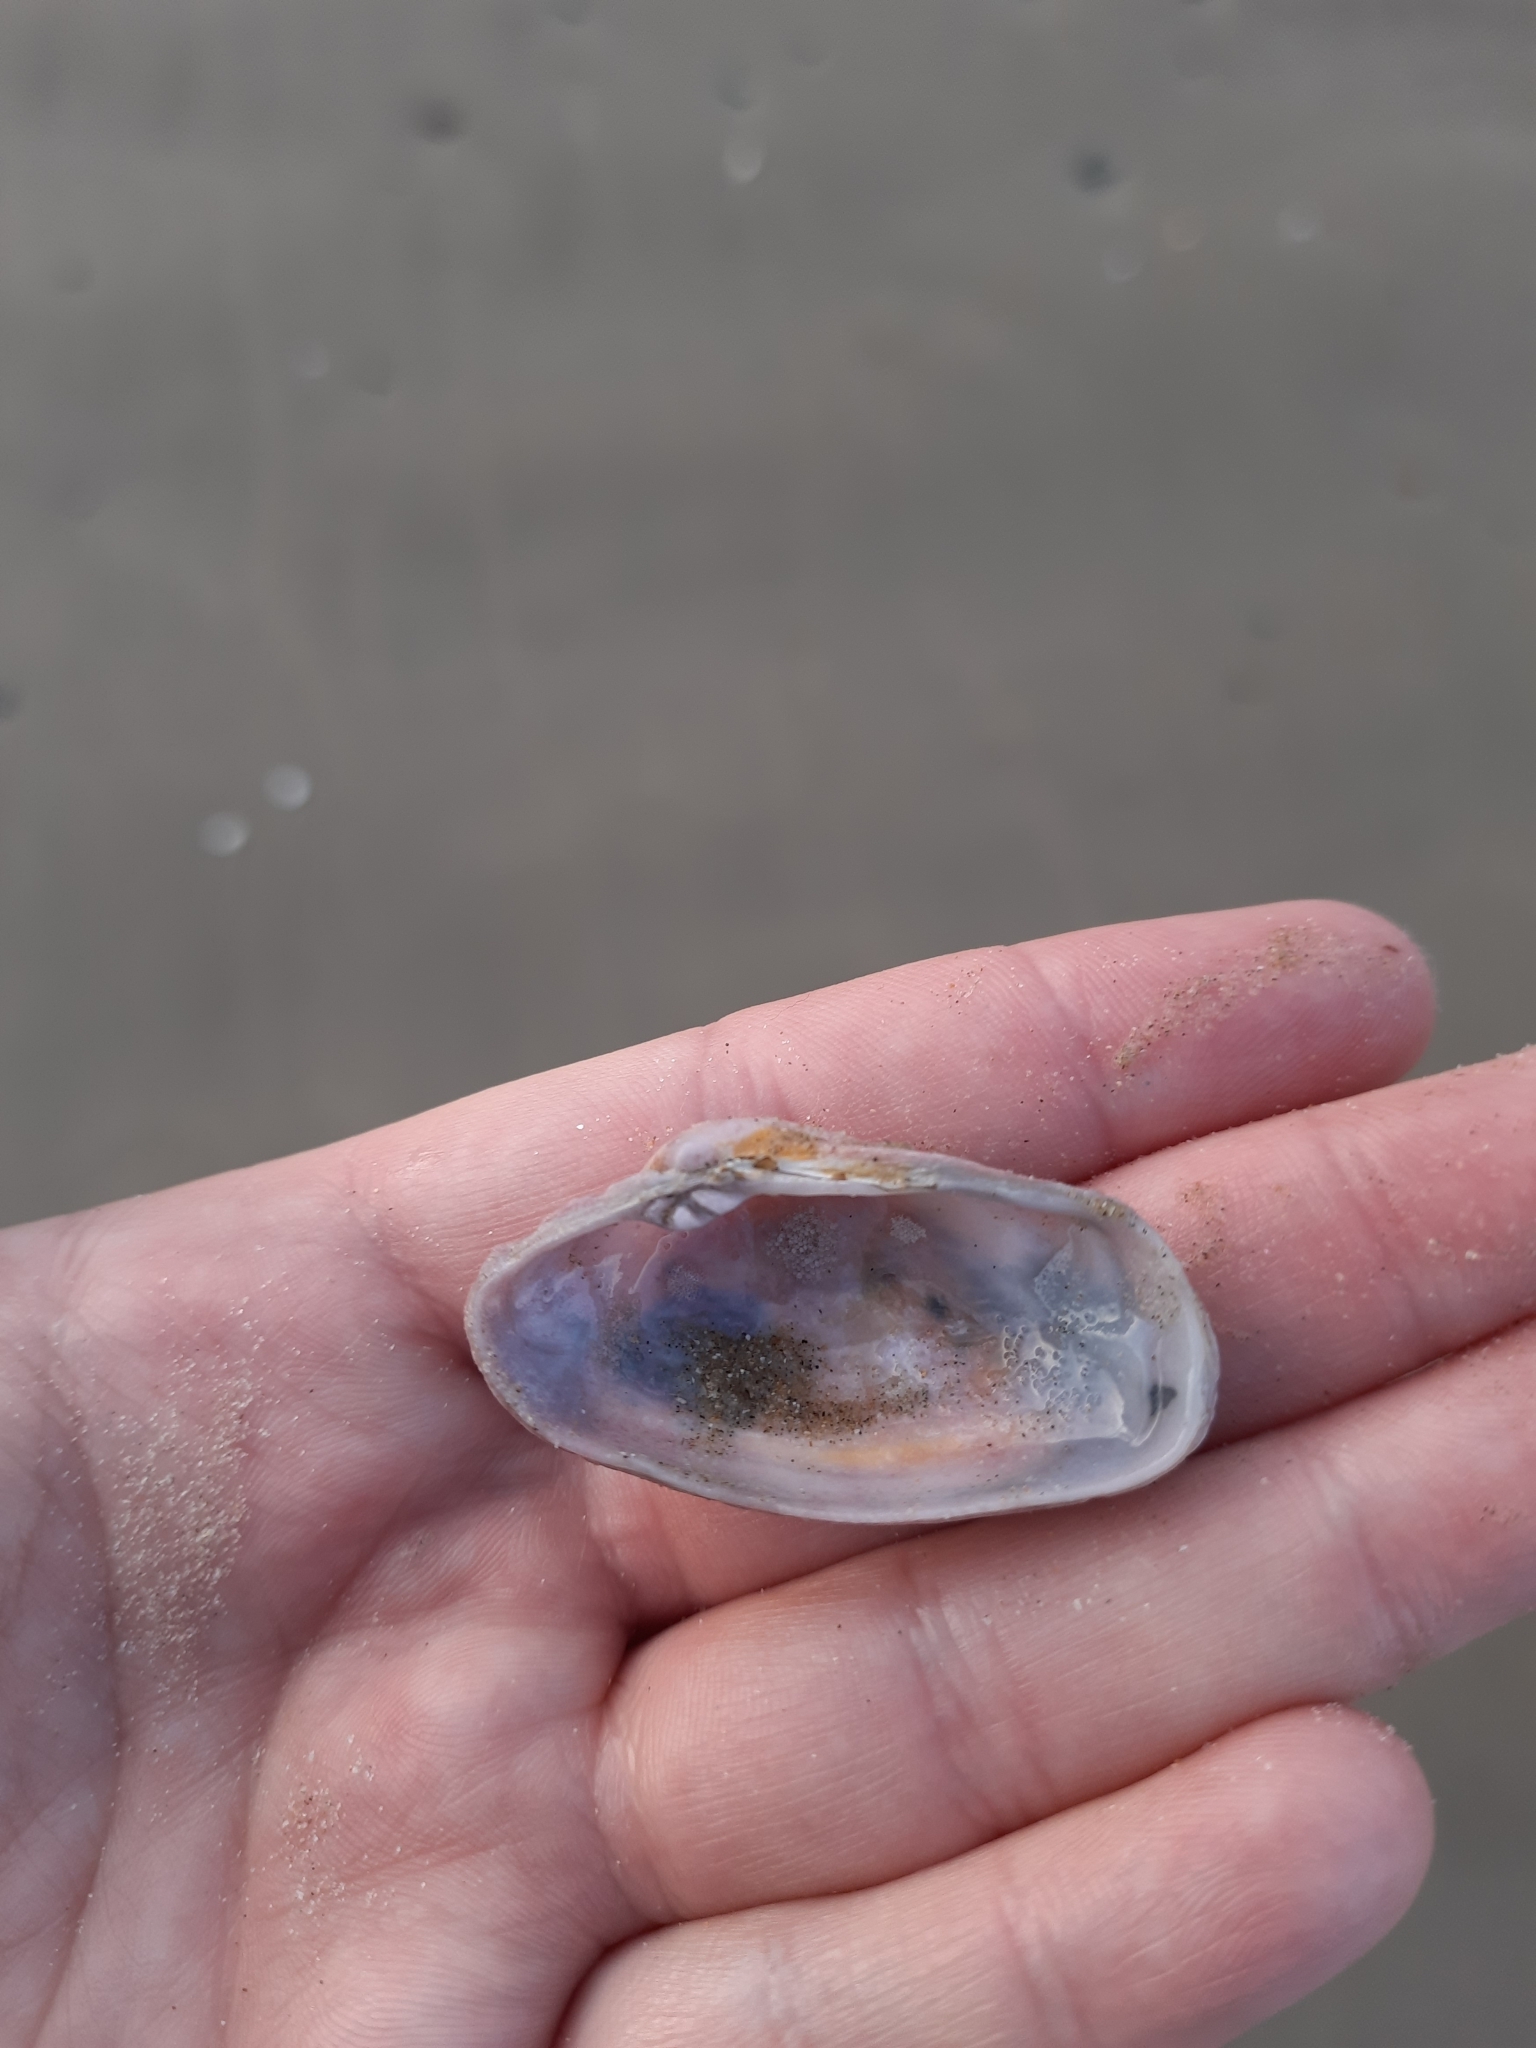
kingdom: Animalia
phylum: Mollusca
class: Bivalvia
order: Venerida
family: Veneridae
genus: Irus
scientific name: Irus elegans
